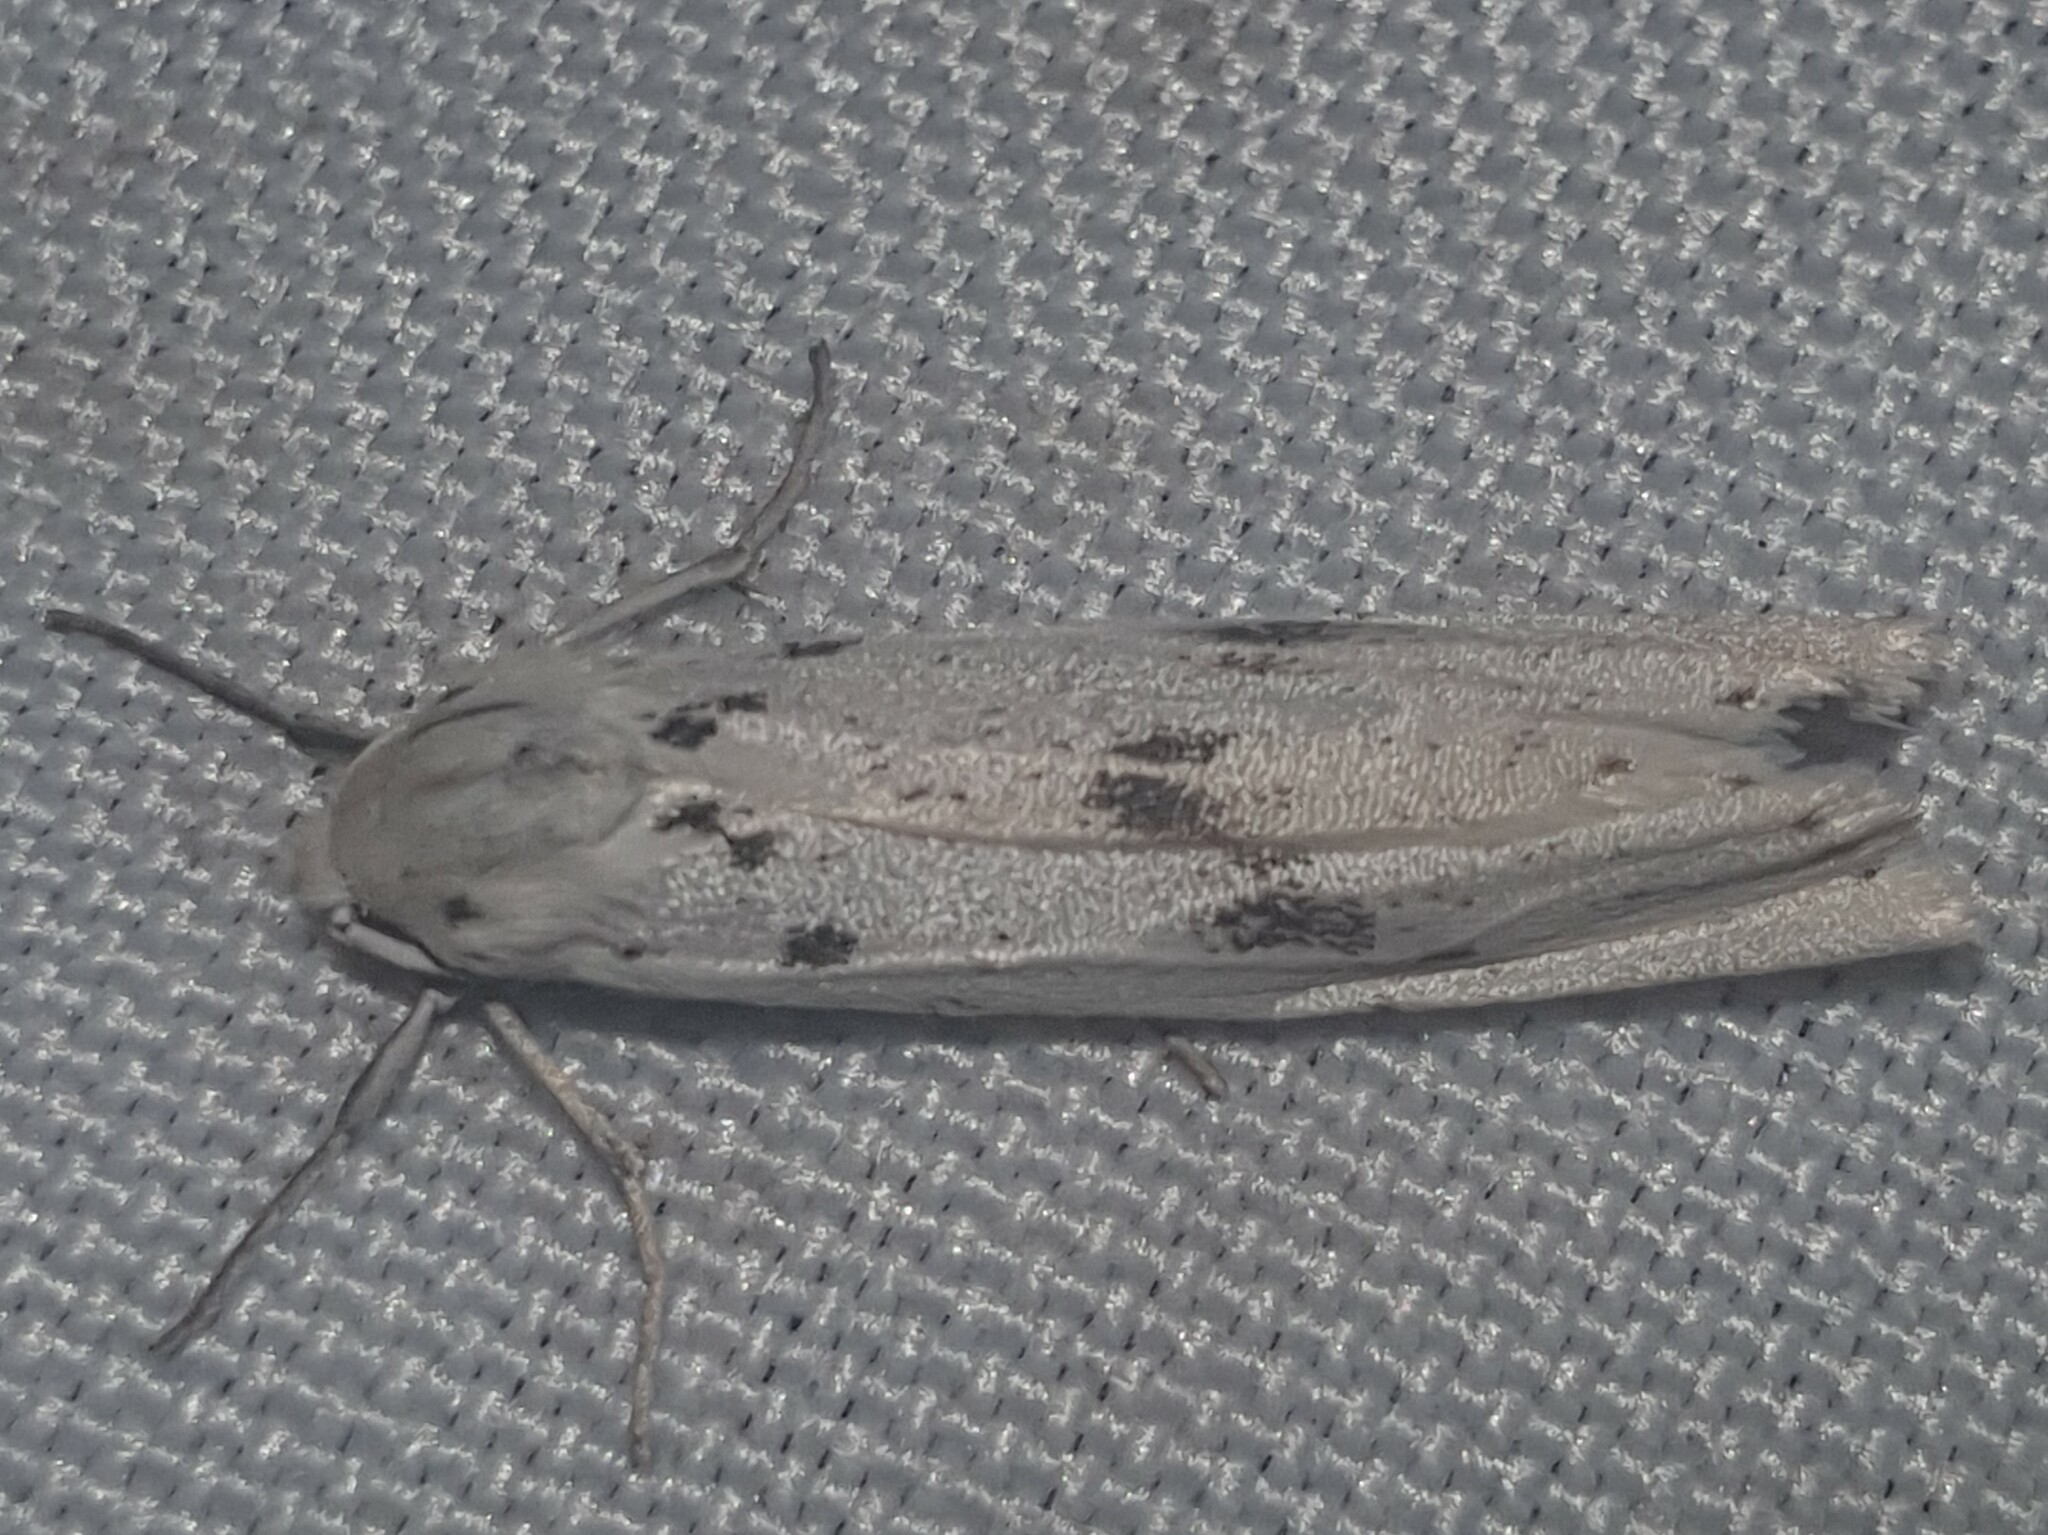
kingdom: Animalia
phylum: Arthropoda
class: Insecta
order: Lepidoptera
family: Erebidae
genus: Coscinia
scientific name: Coscinia cribraria
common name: Speckled footman
